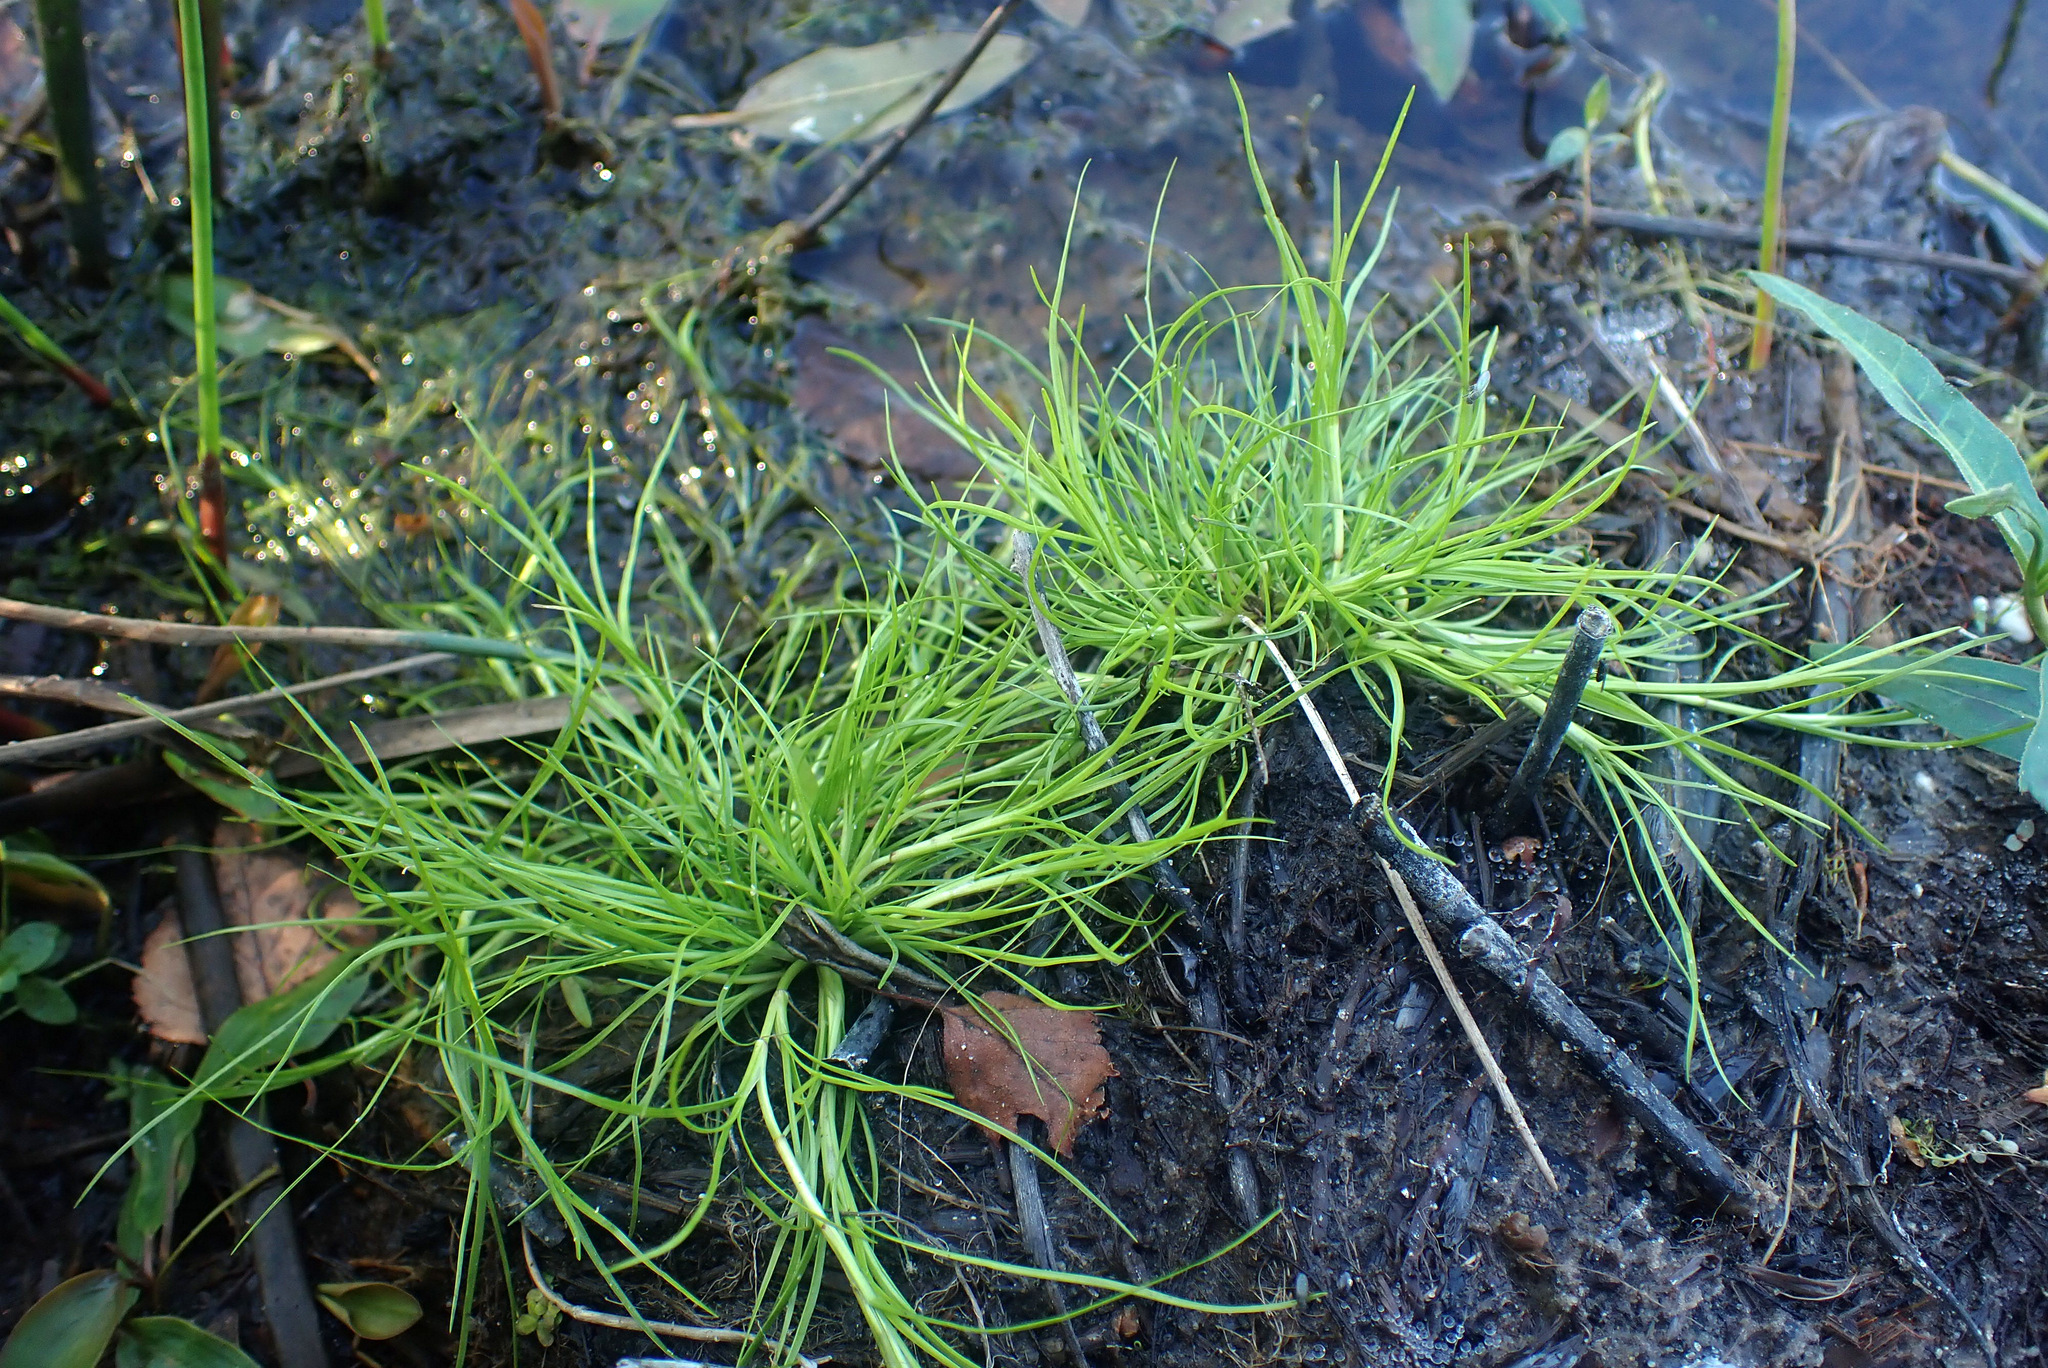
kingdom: Plantae
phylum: Tracheophyta
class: Liliopsida
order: Poales
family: Cyperaceae
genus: Isolepis
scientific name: Isolepis fluitans
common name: Floating club-rush
